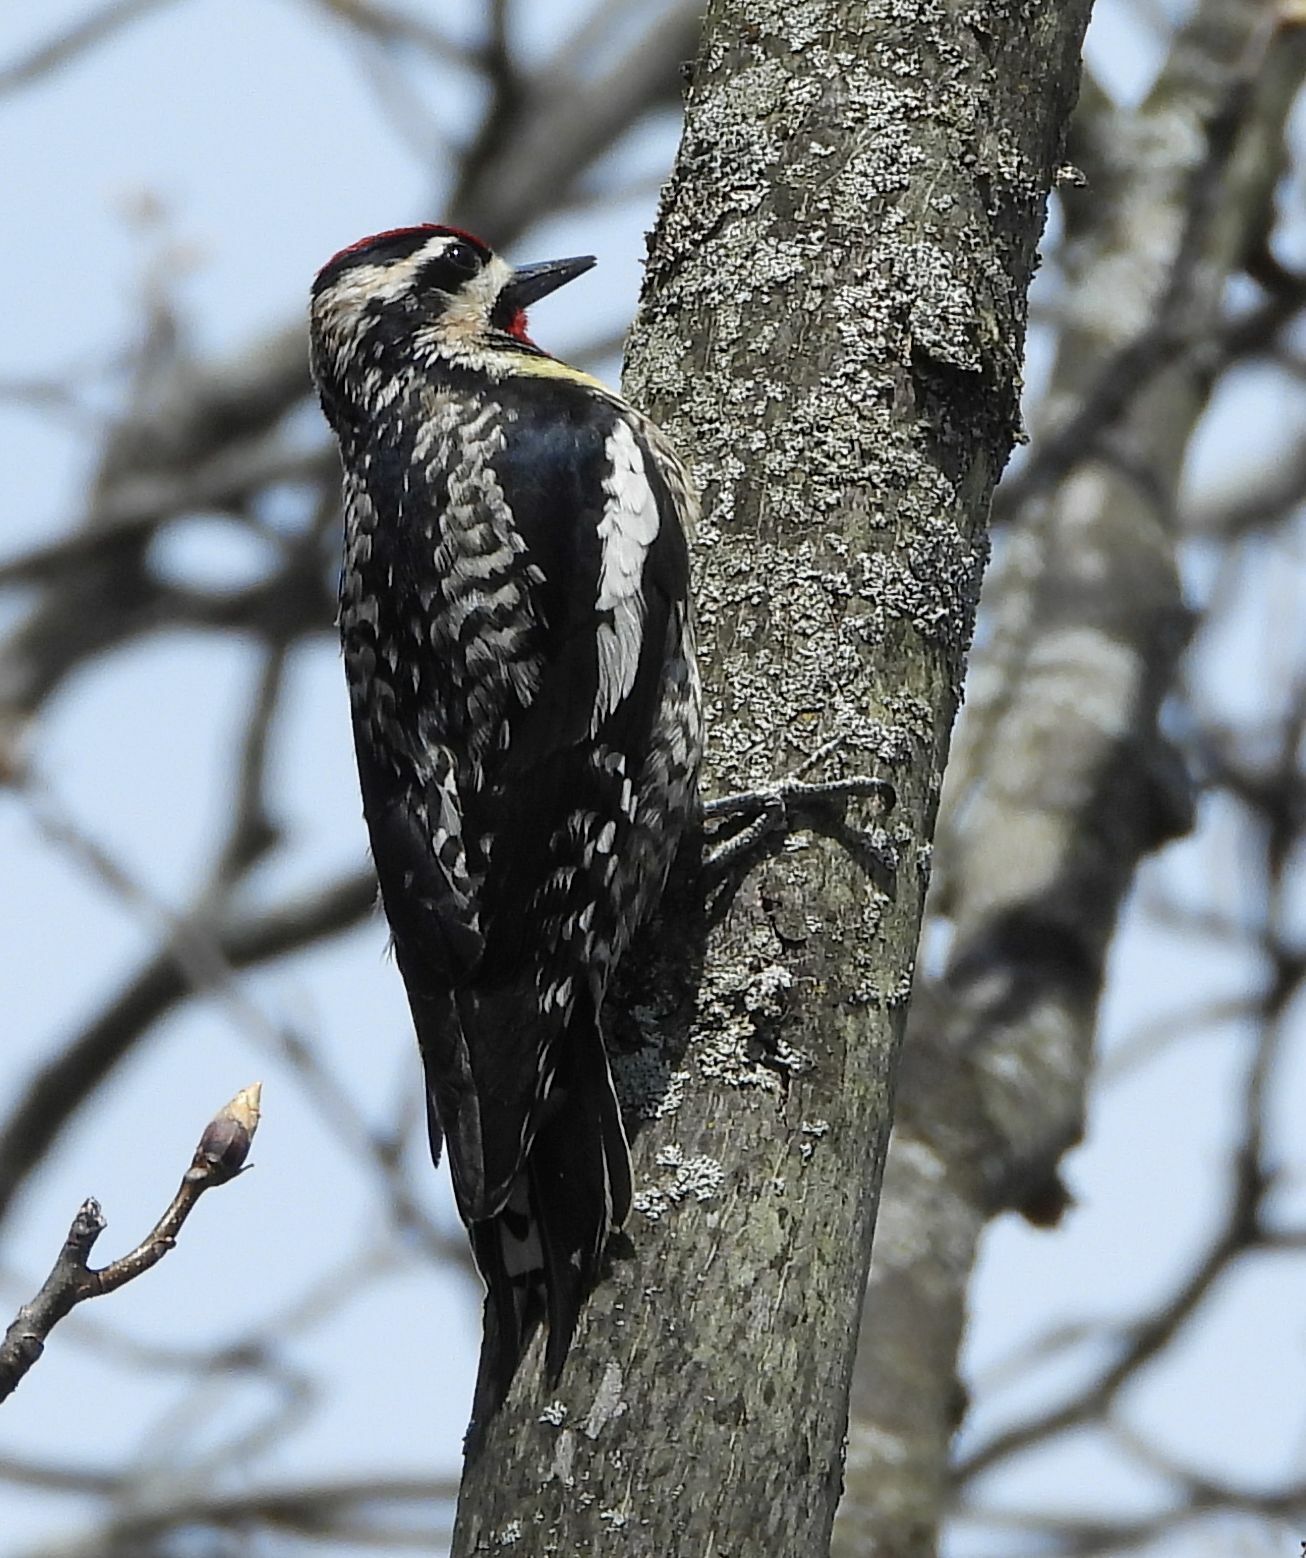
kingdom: Animalia
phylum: Chordata
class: Aves
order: Piciformes
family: Picidae
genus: Sphyrapicus
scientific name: Sphyrapicus varius
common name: Yellow-bellied sapsucker
